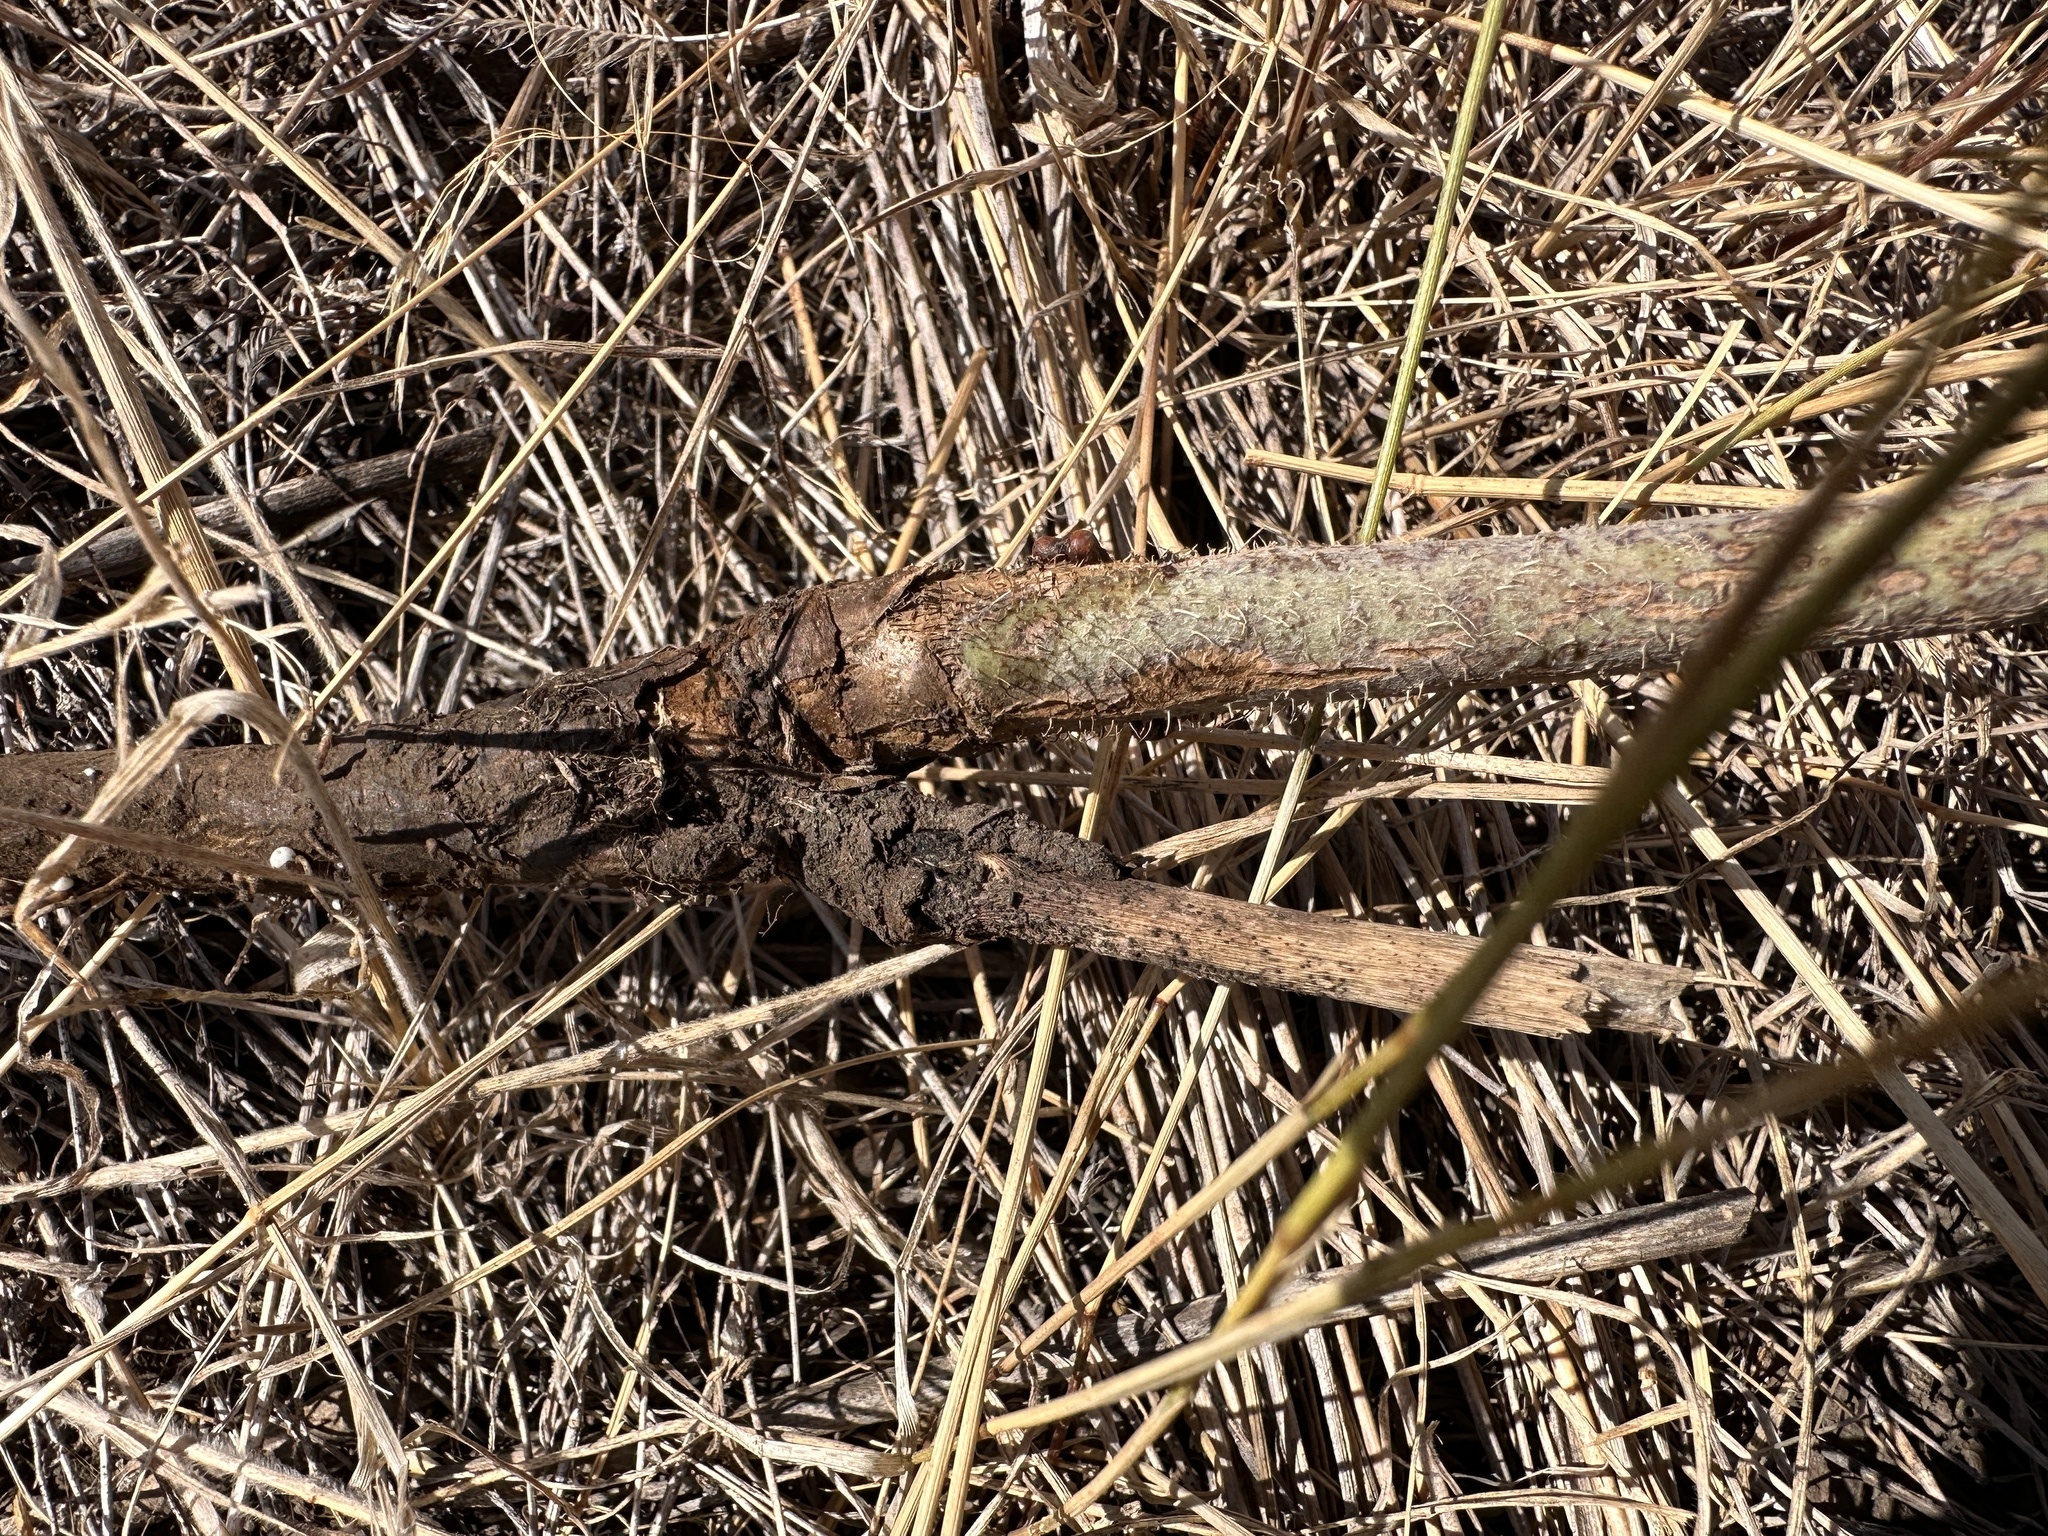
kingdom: Plantae
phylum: Tracheophyta
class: Magnoliopsida
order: Asterales
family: Asteraceae
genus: Chondrilla
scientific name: Chondrilla juncea
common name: Skeleton weed
